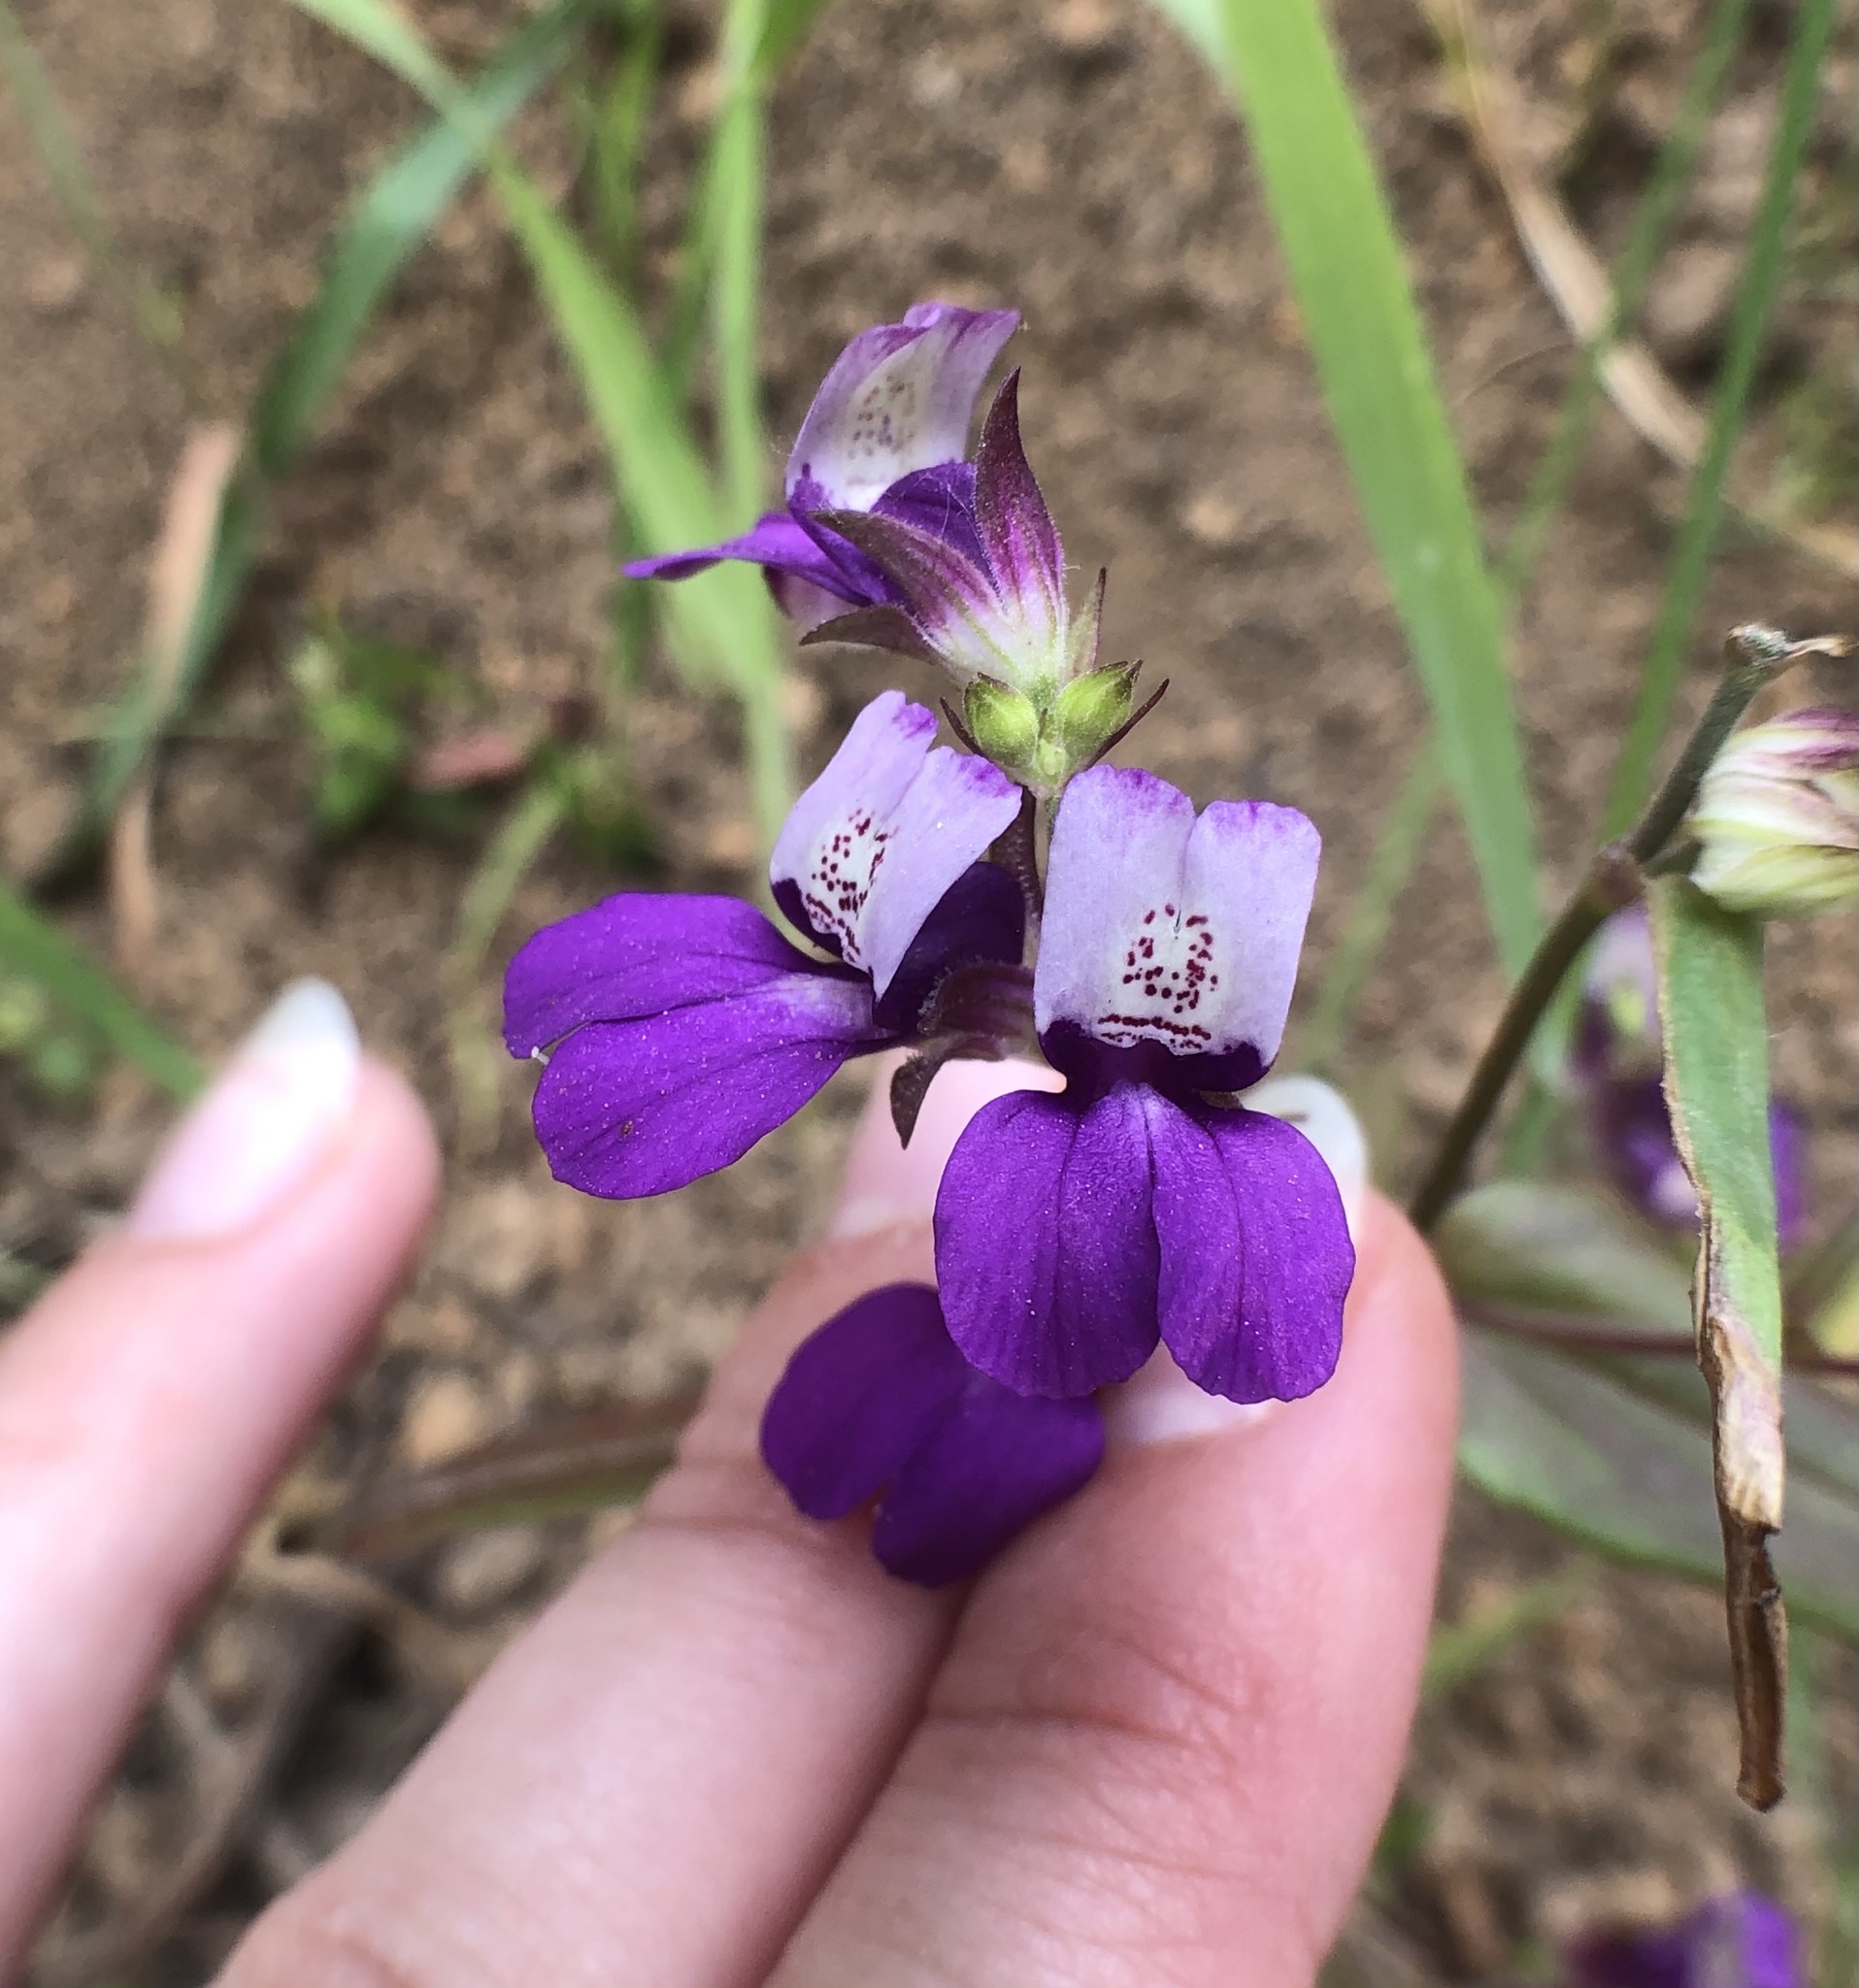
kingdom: Plantae
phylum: Tracheophyta
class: Magnoliopsida
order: Lamiales
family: Plantaginaceae
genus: Collinsia
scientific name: Collinsia heterophylla
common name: Chinese-houses
